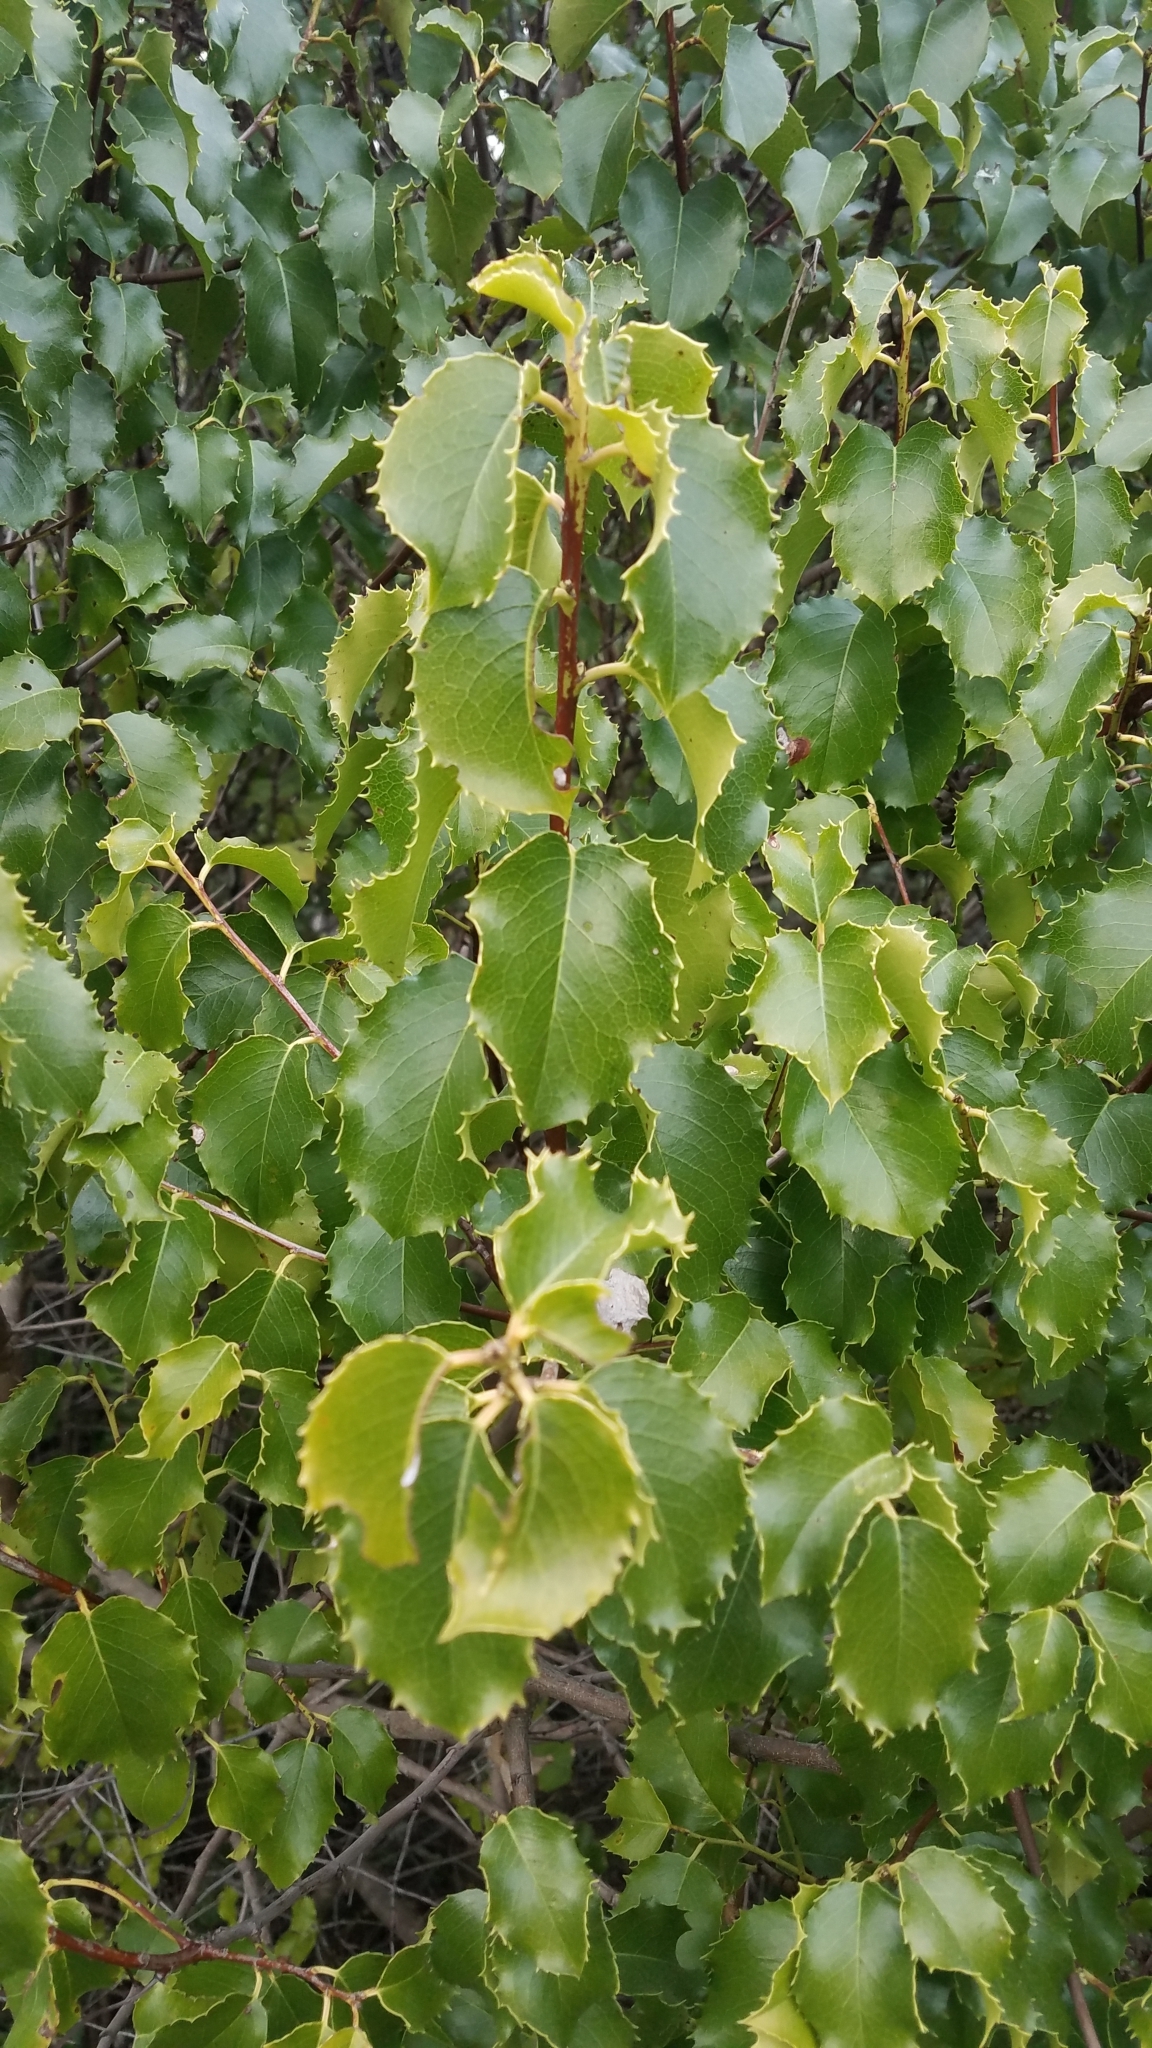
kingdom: Plantae
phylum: Tracheophyta
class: Magnoliopsida
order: Rosales
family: Rosaceae
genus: Prunus
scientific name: Prunus ilicifolia
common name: Hollyleaf cherry
